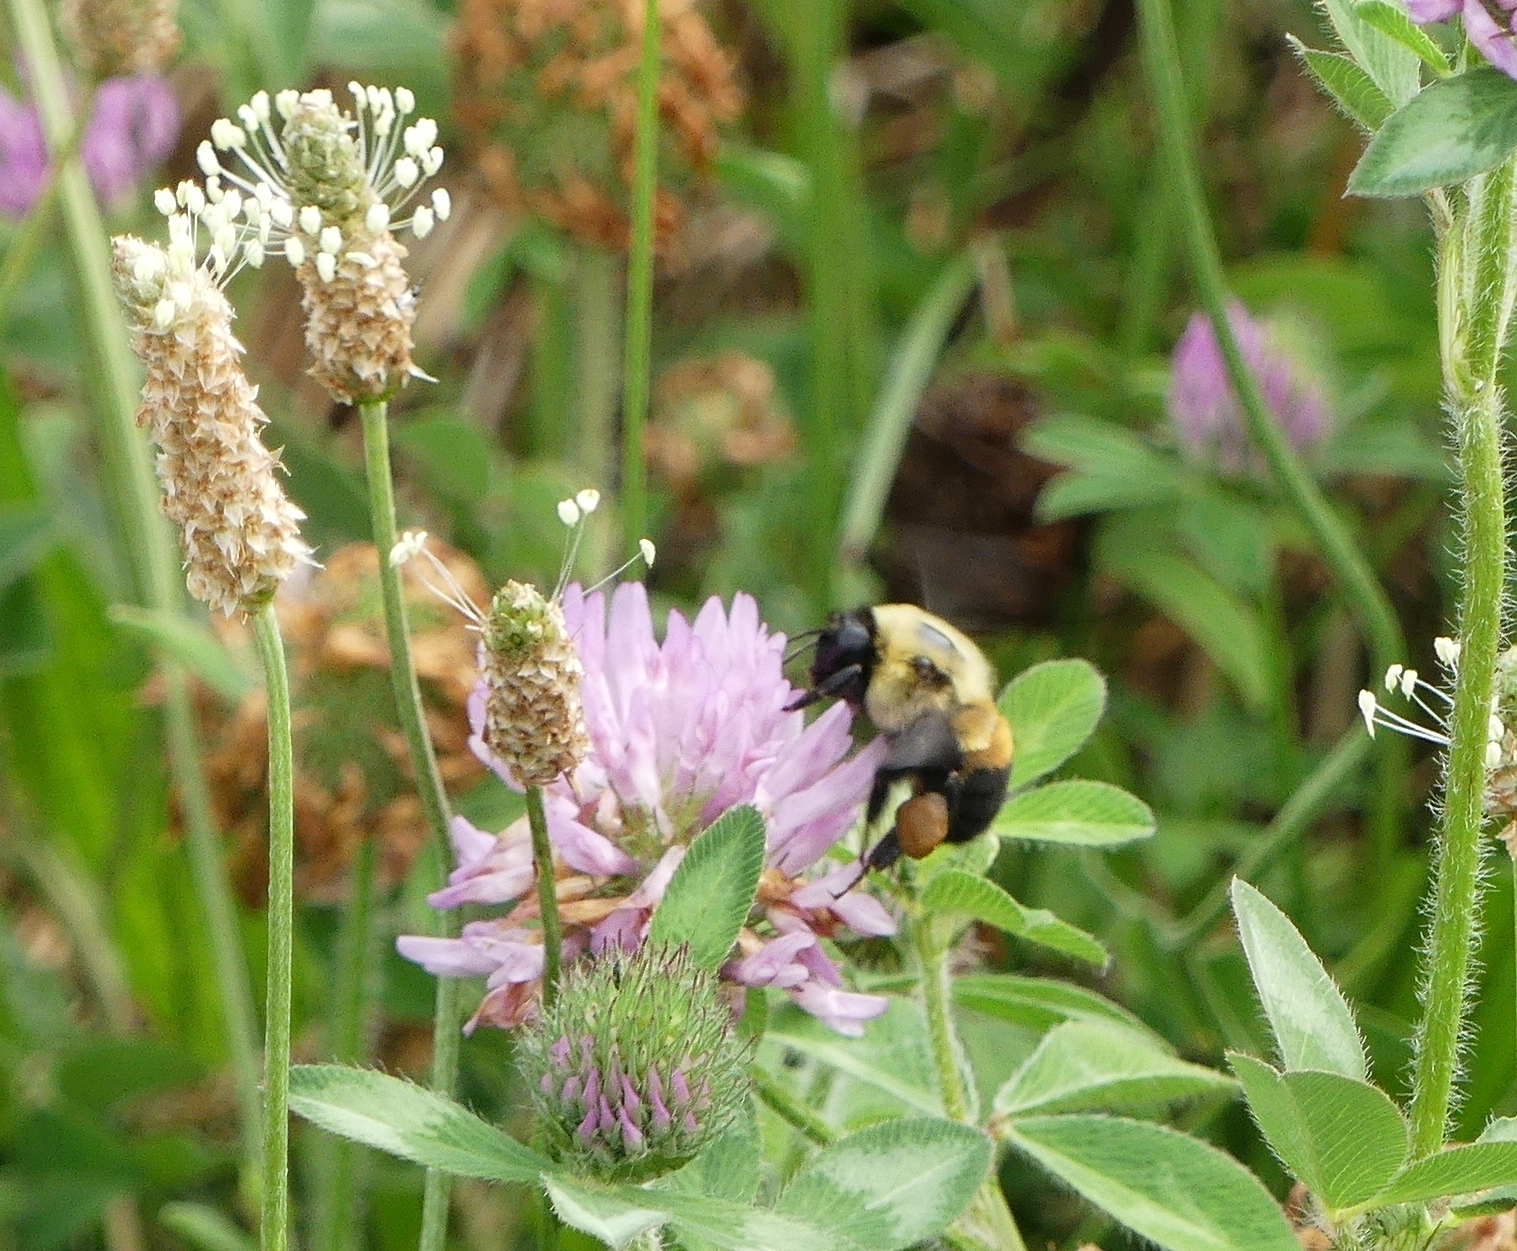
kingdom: Animalia
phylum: Arthropoda
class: Insecta
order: Hymenoptera
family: Apidae
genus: Bombus
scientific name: Bombus griseocollis
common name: Brown-belted bumble bee
